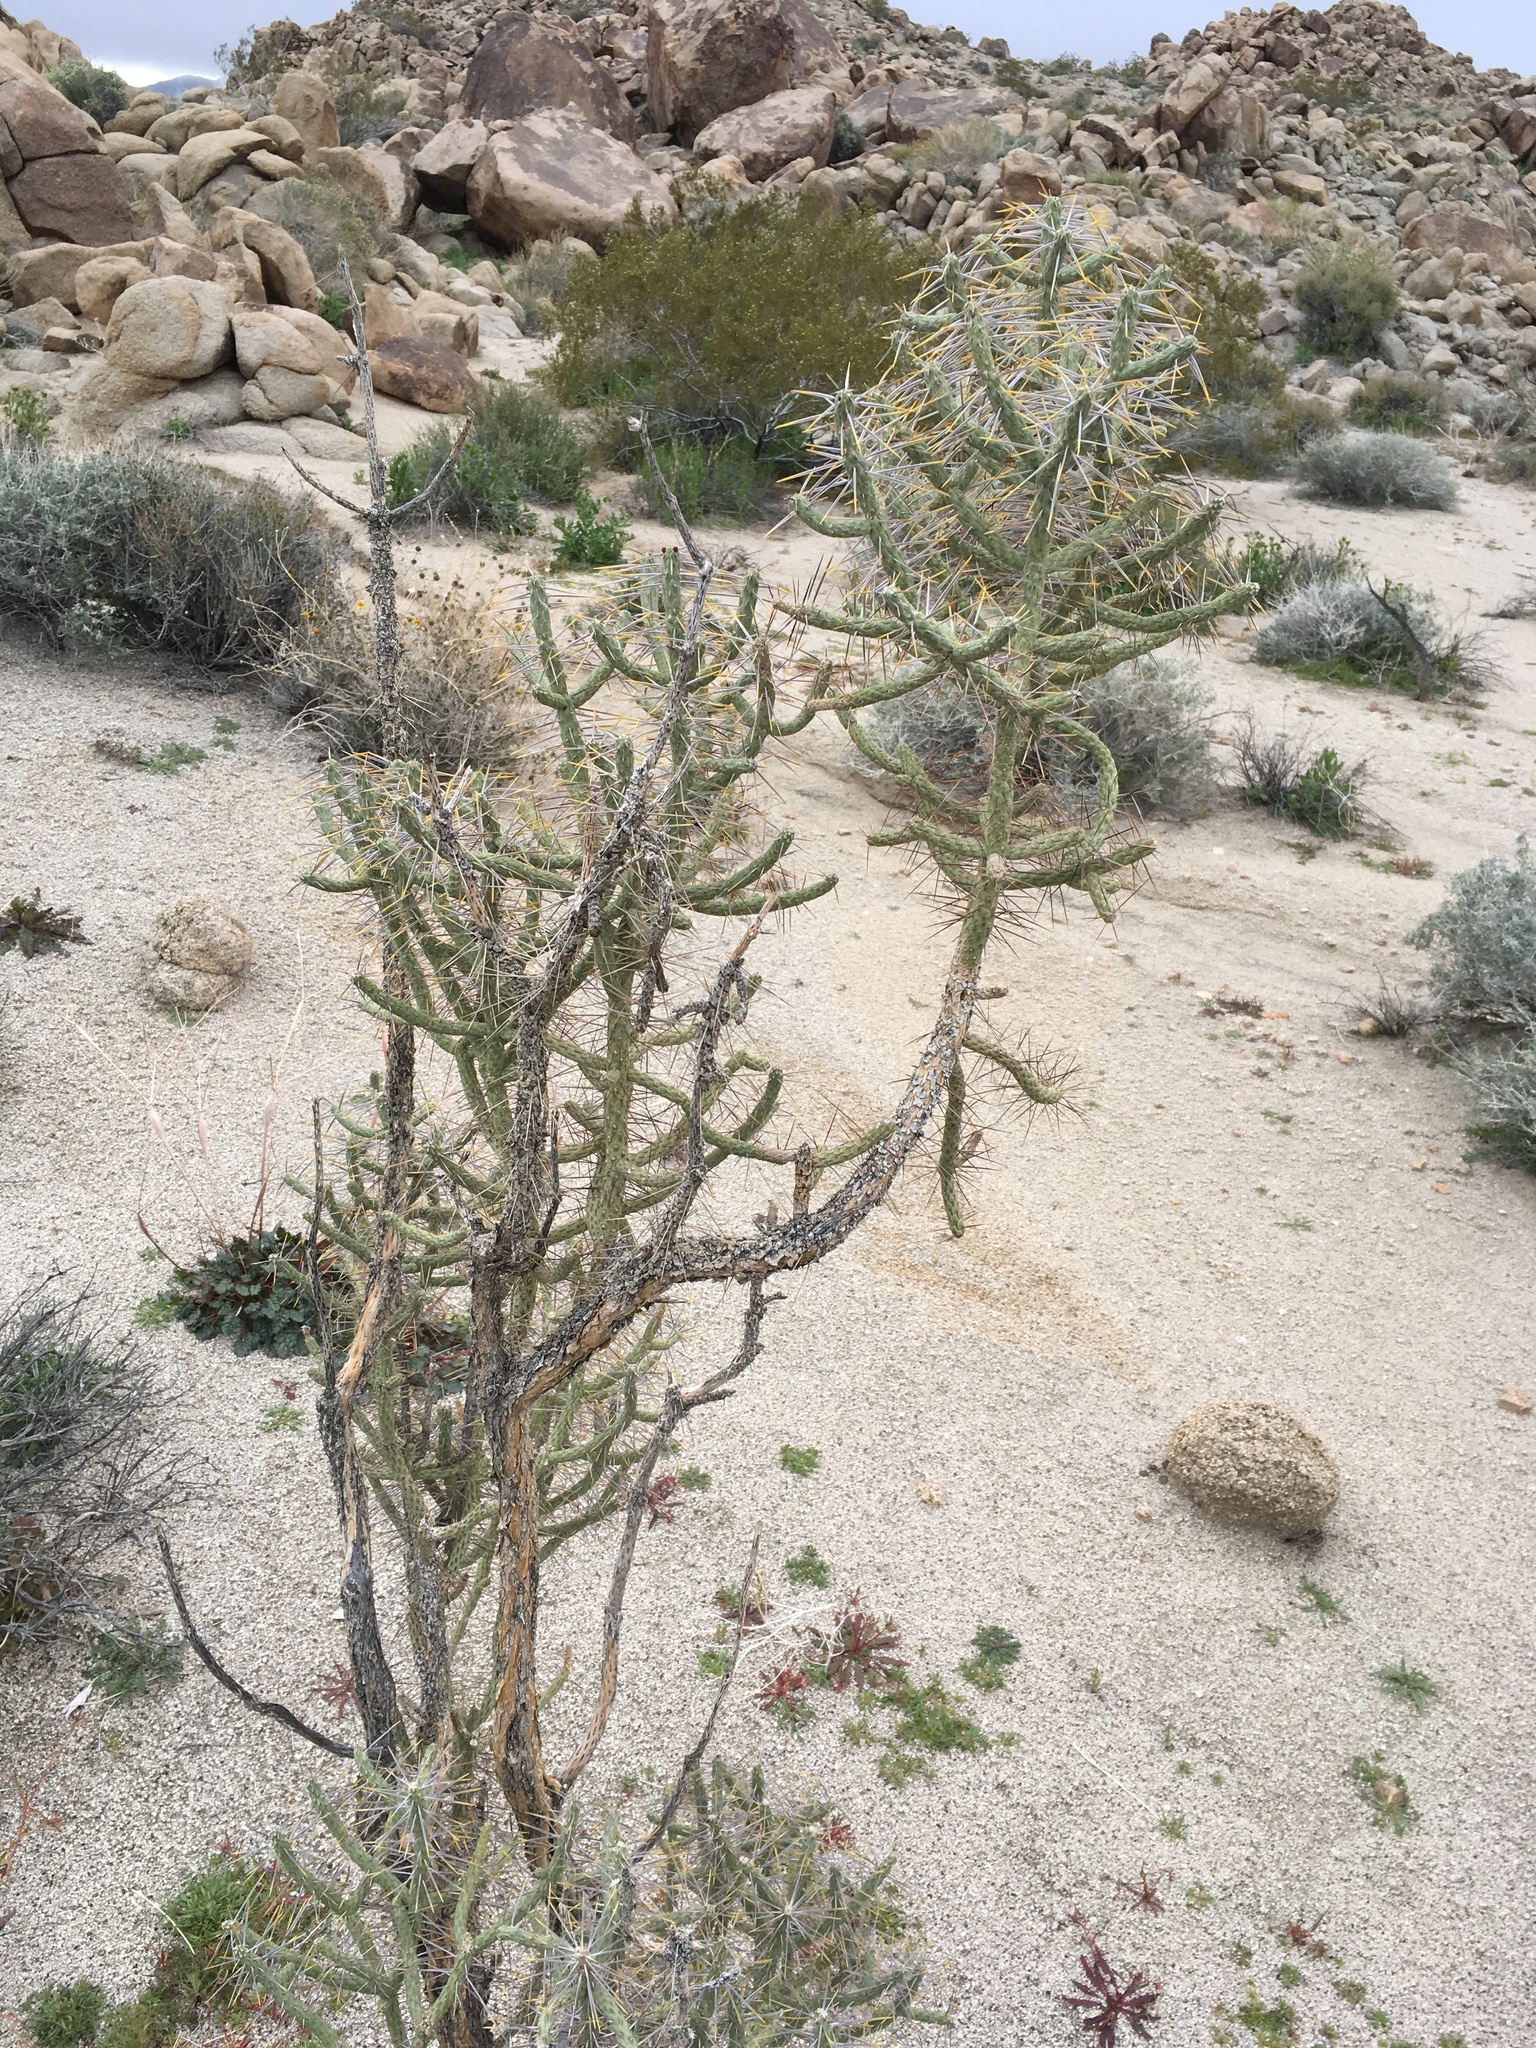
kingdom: Plantae
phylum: Tracheophyta
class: Magnoliopsida
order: Caryophyllales
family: Cactaceae
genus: Cylindropuntia
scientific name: Cylindropuntia ramosissima
